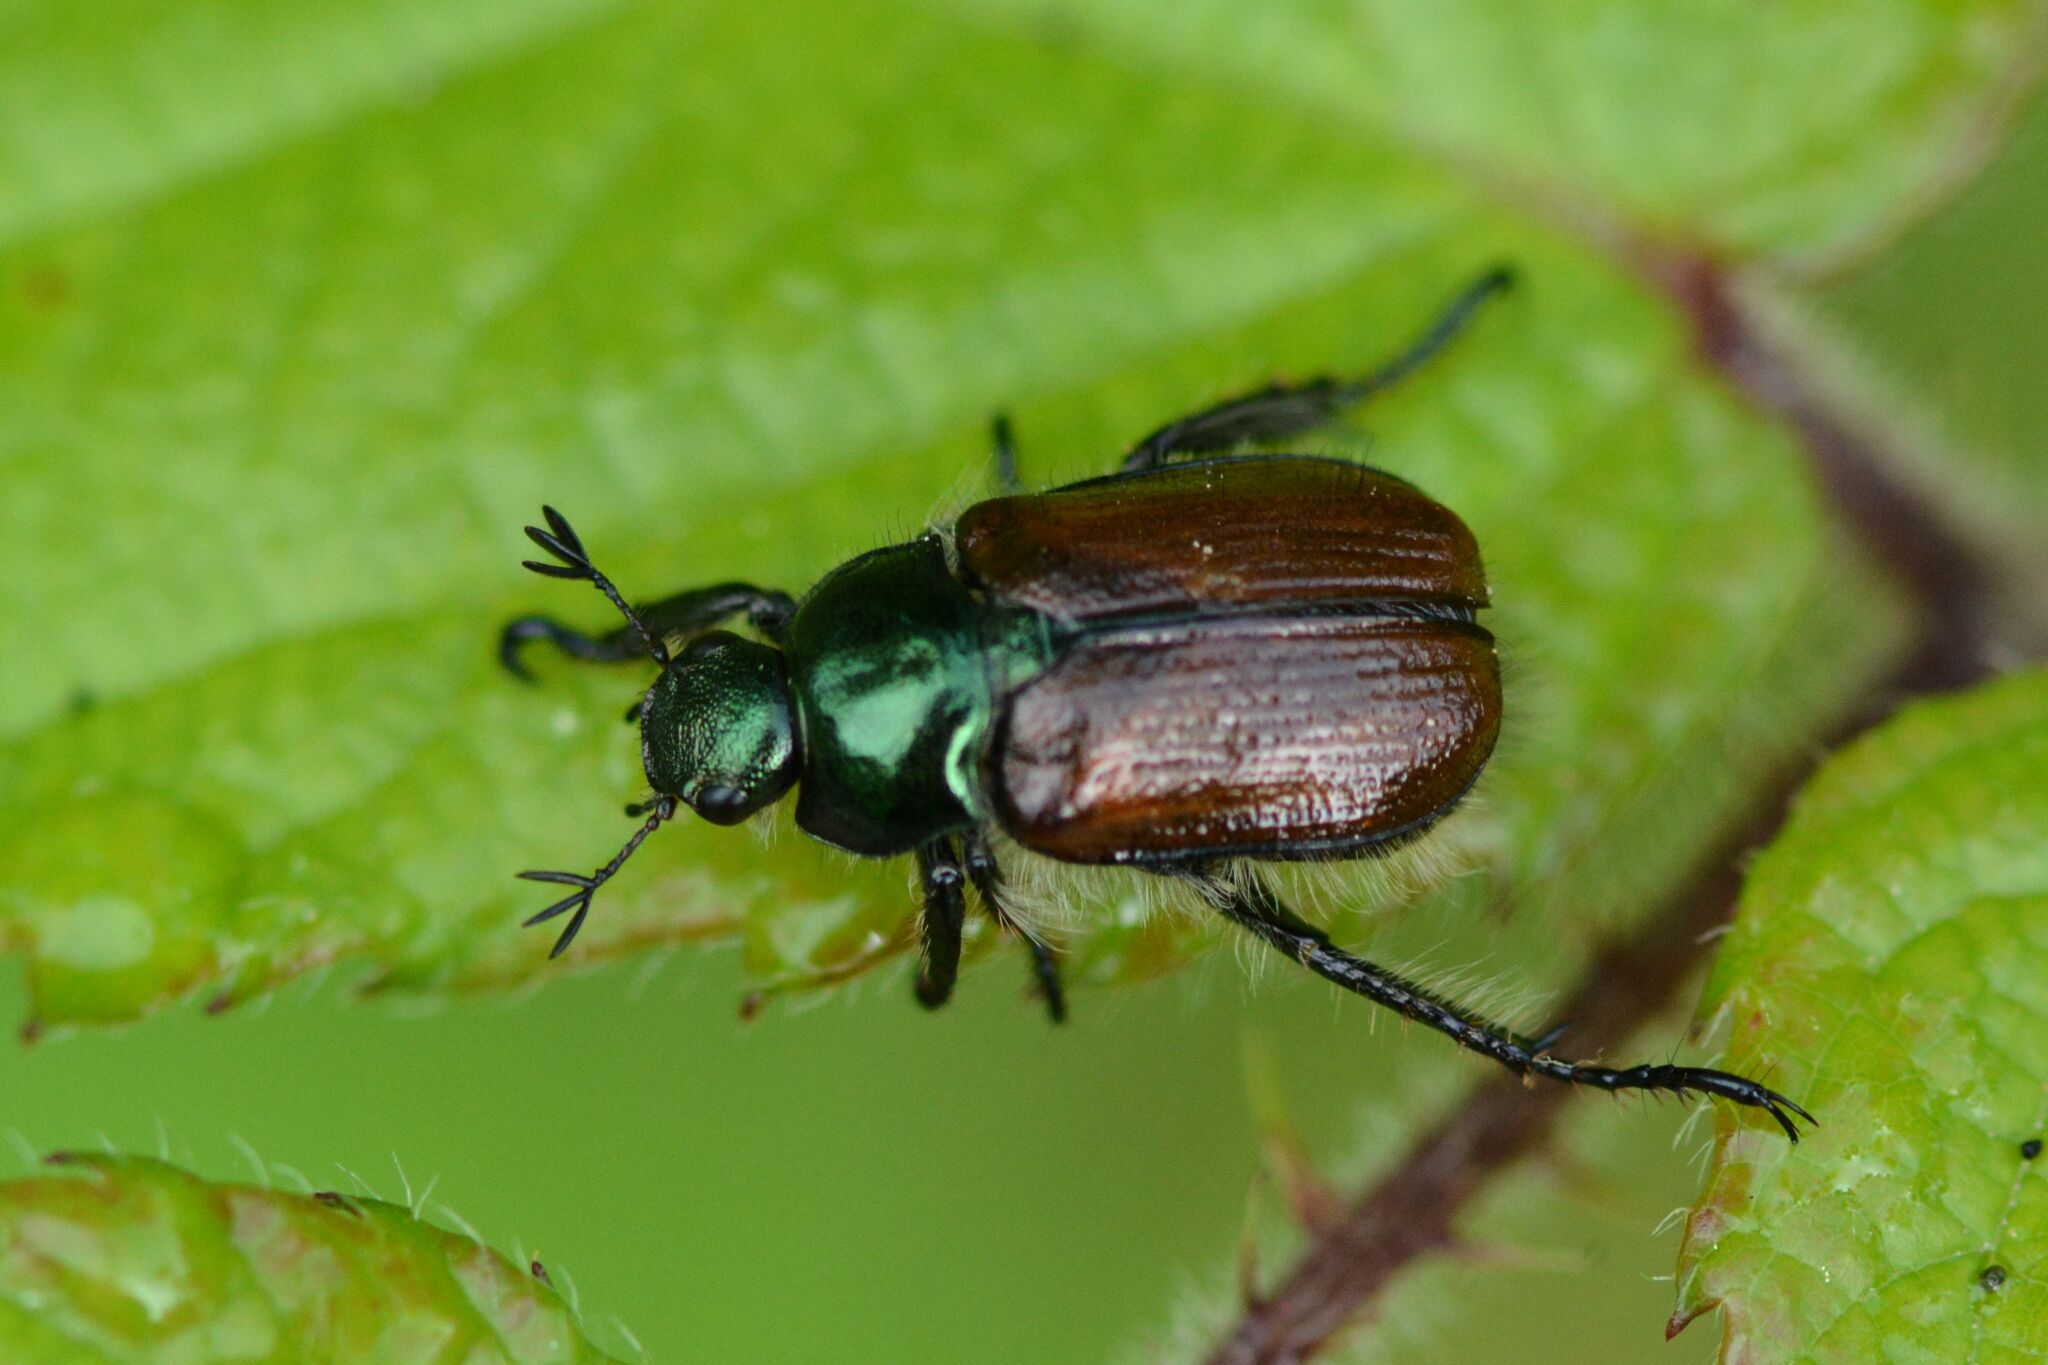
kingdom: Animalia
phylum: Arthropoda
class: Insecta
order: Coleoptera
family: Scarabaeidae
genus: Phyllopertha
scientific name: Phyllopertha horticola
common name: Garden chafer
